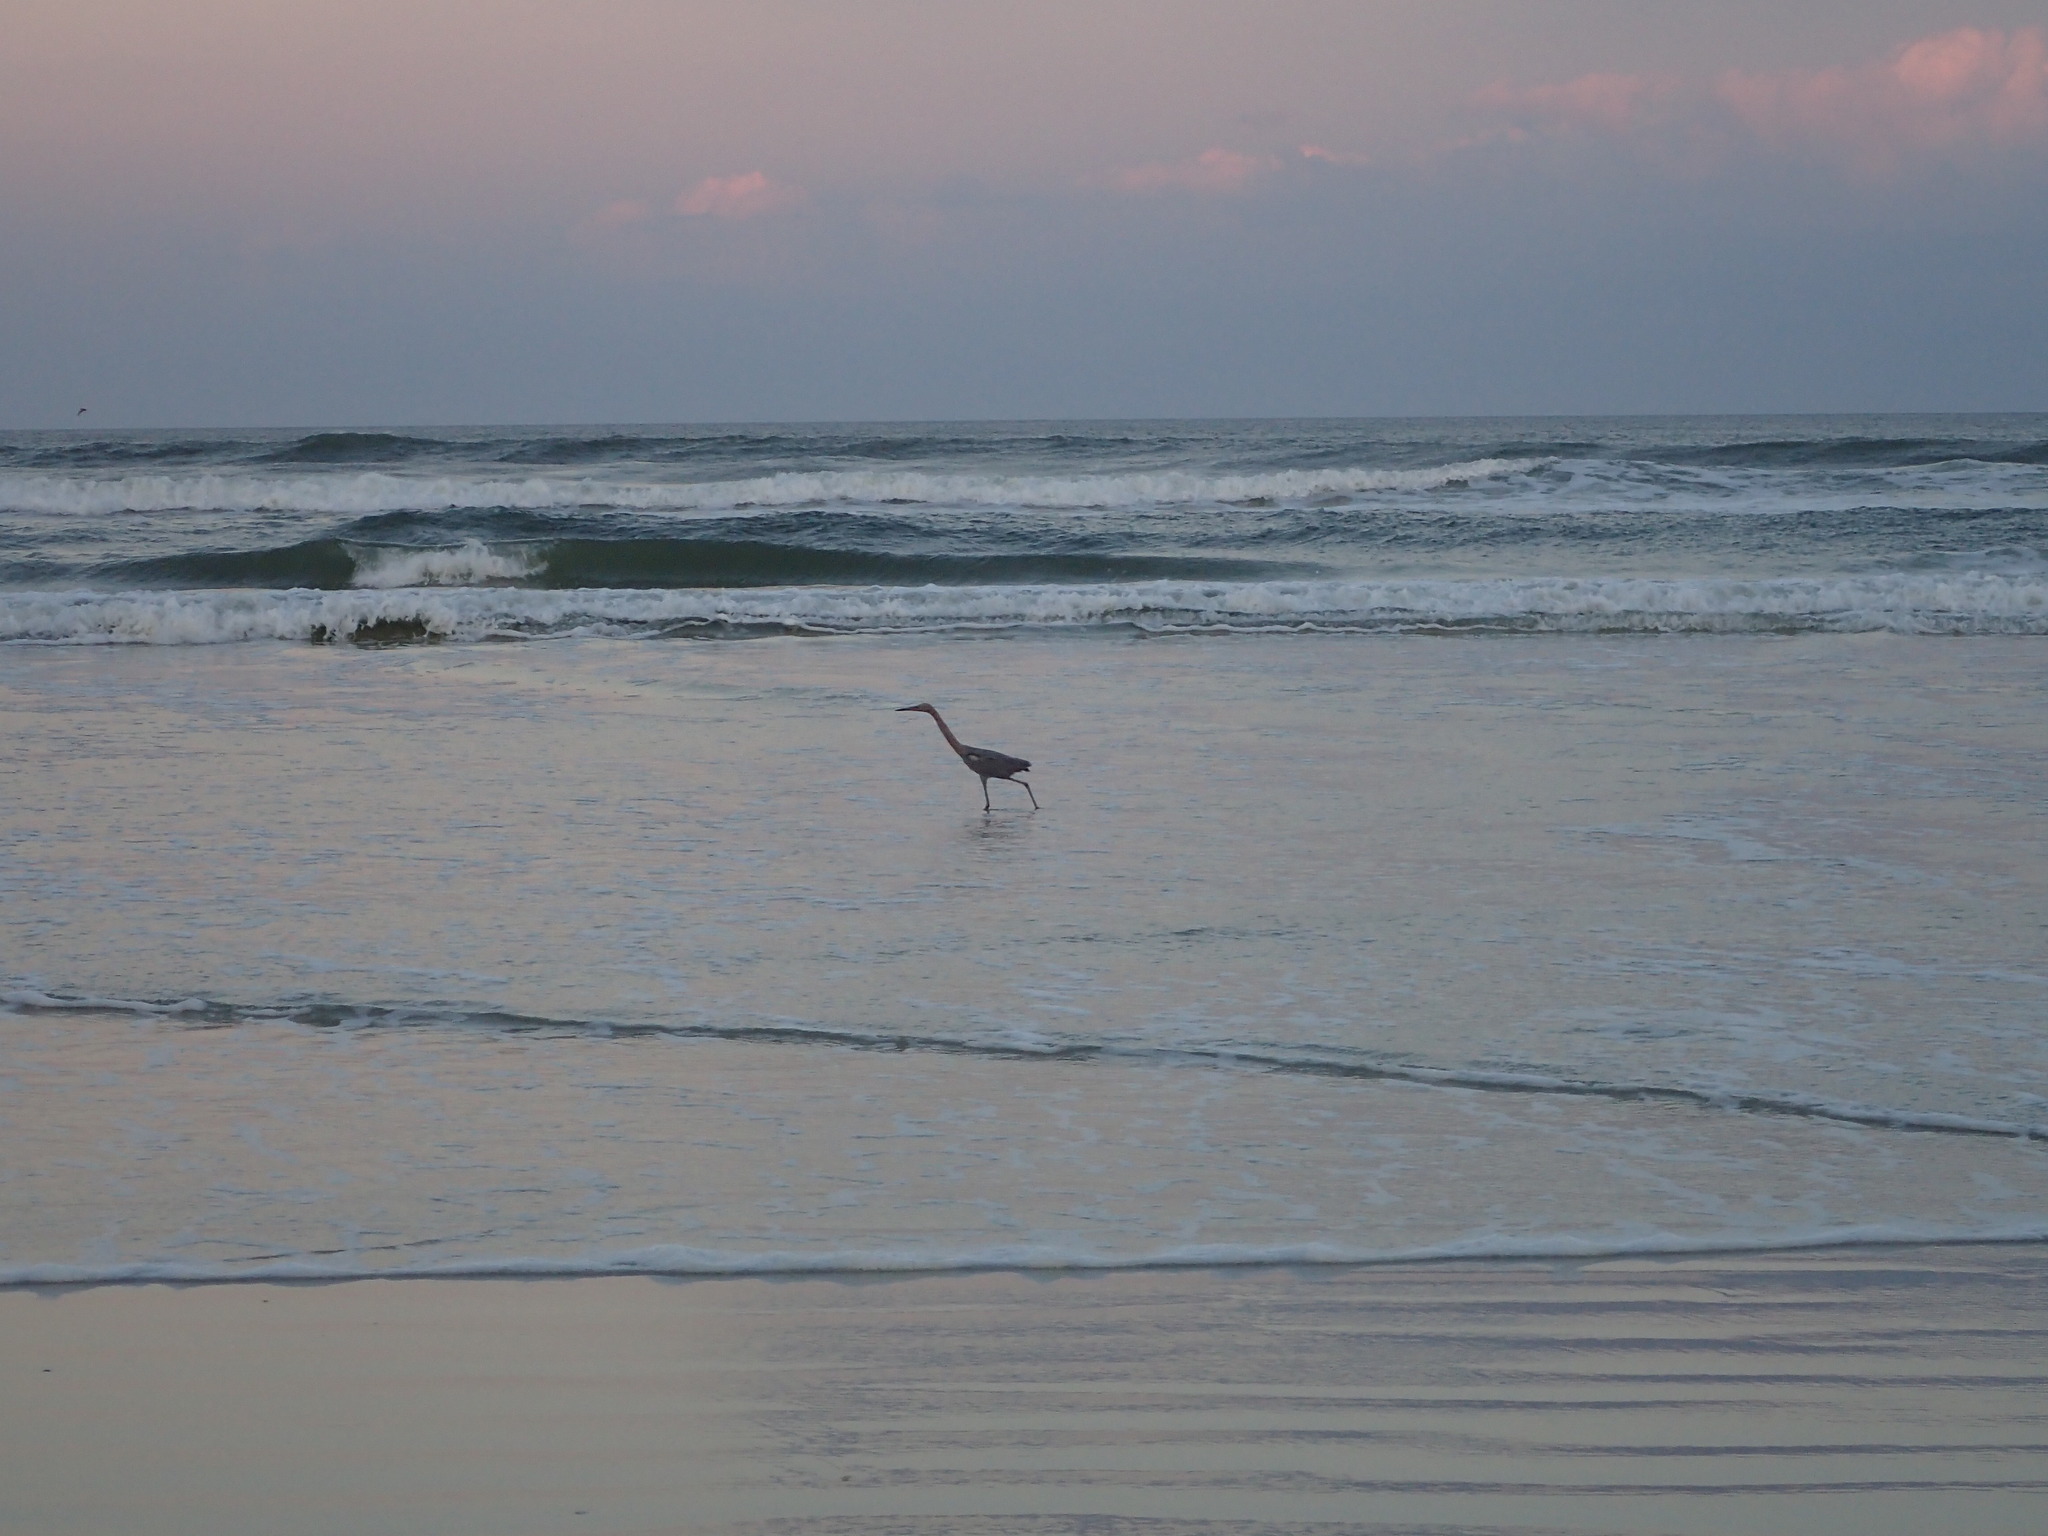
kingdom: Animalia
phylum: Chordata
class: Aves
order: Pelecaniformes
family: Ardeidae
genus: Egretta
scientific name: Egretta rufescens
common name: Reddish egret
